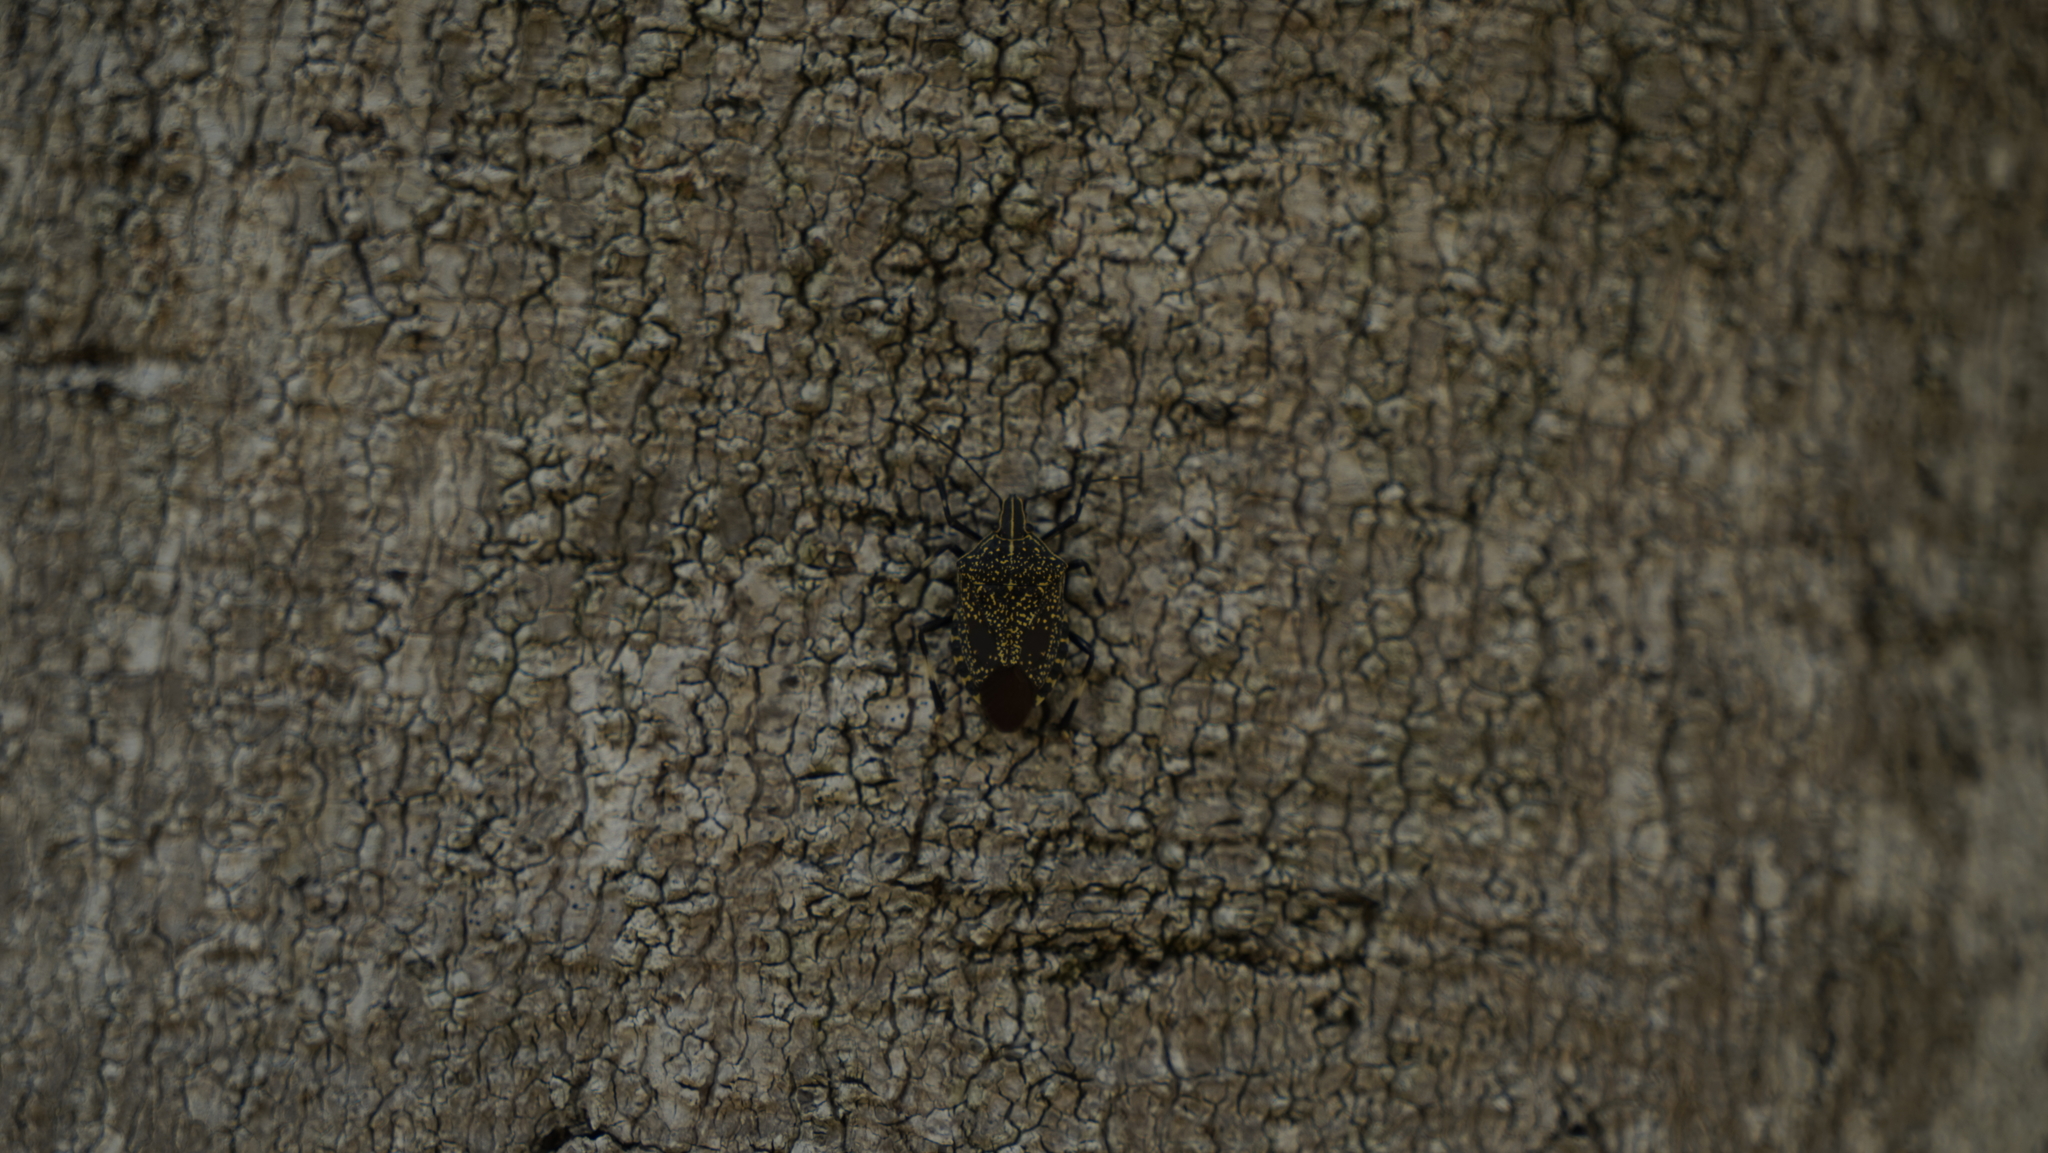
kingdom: Animalia
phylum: Arthropoda
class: Insecta
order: Hemiptera
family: Pentatomidae
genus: Erthesina
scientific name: Erthesina fullo
